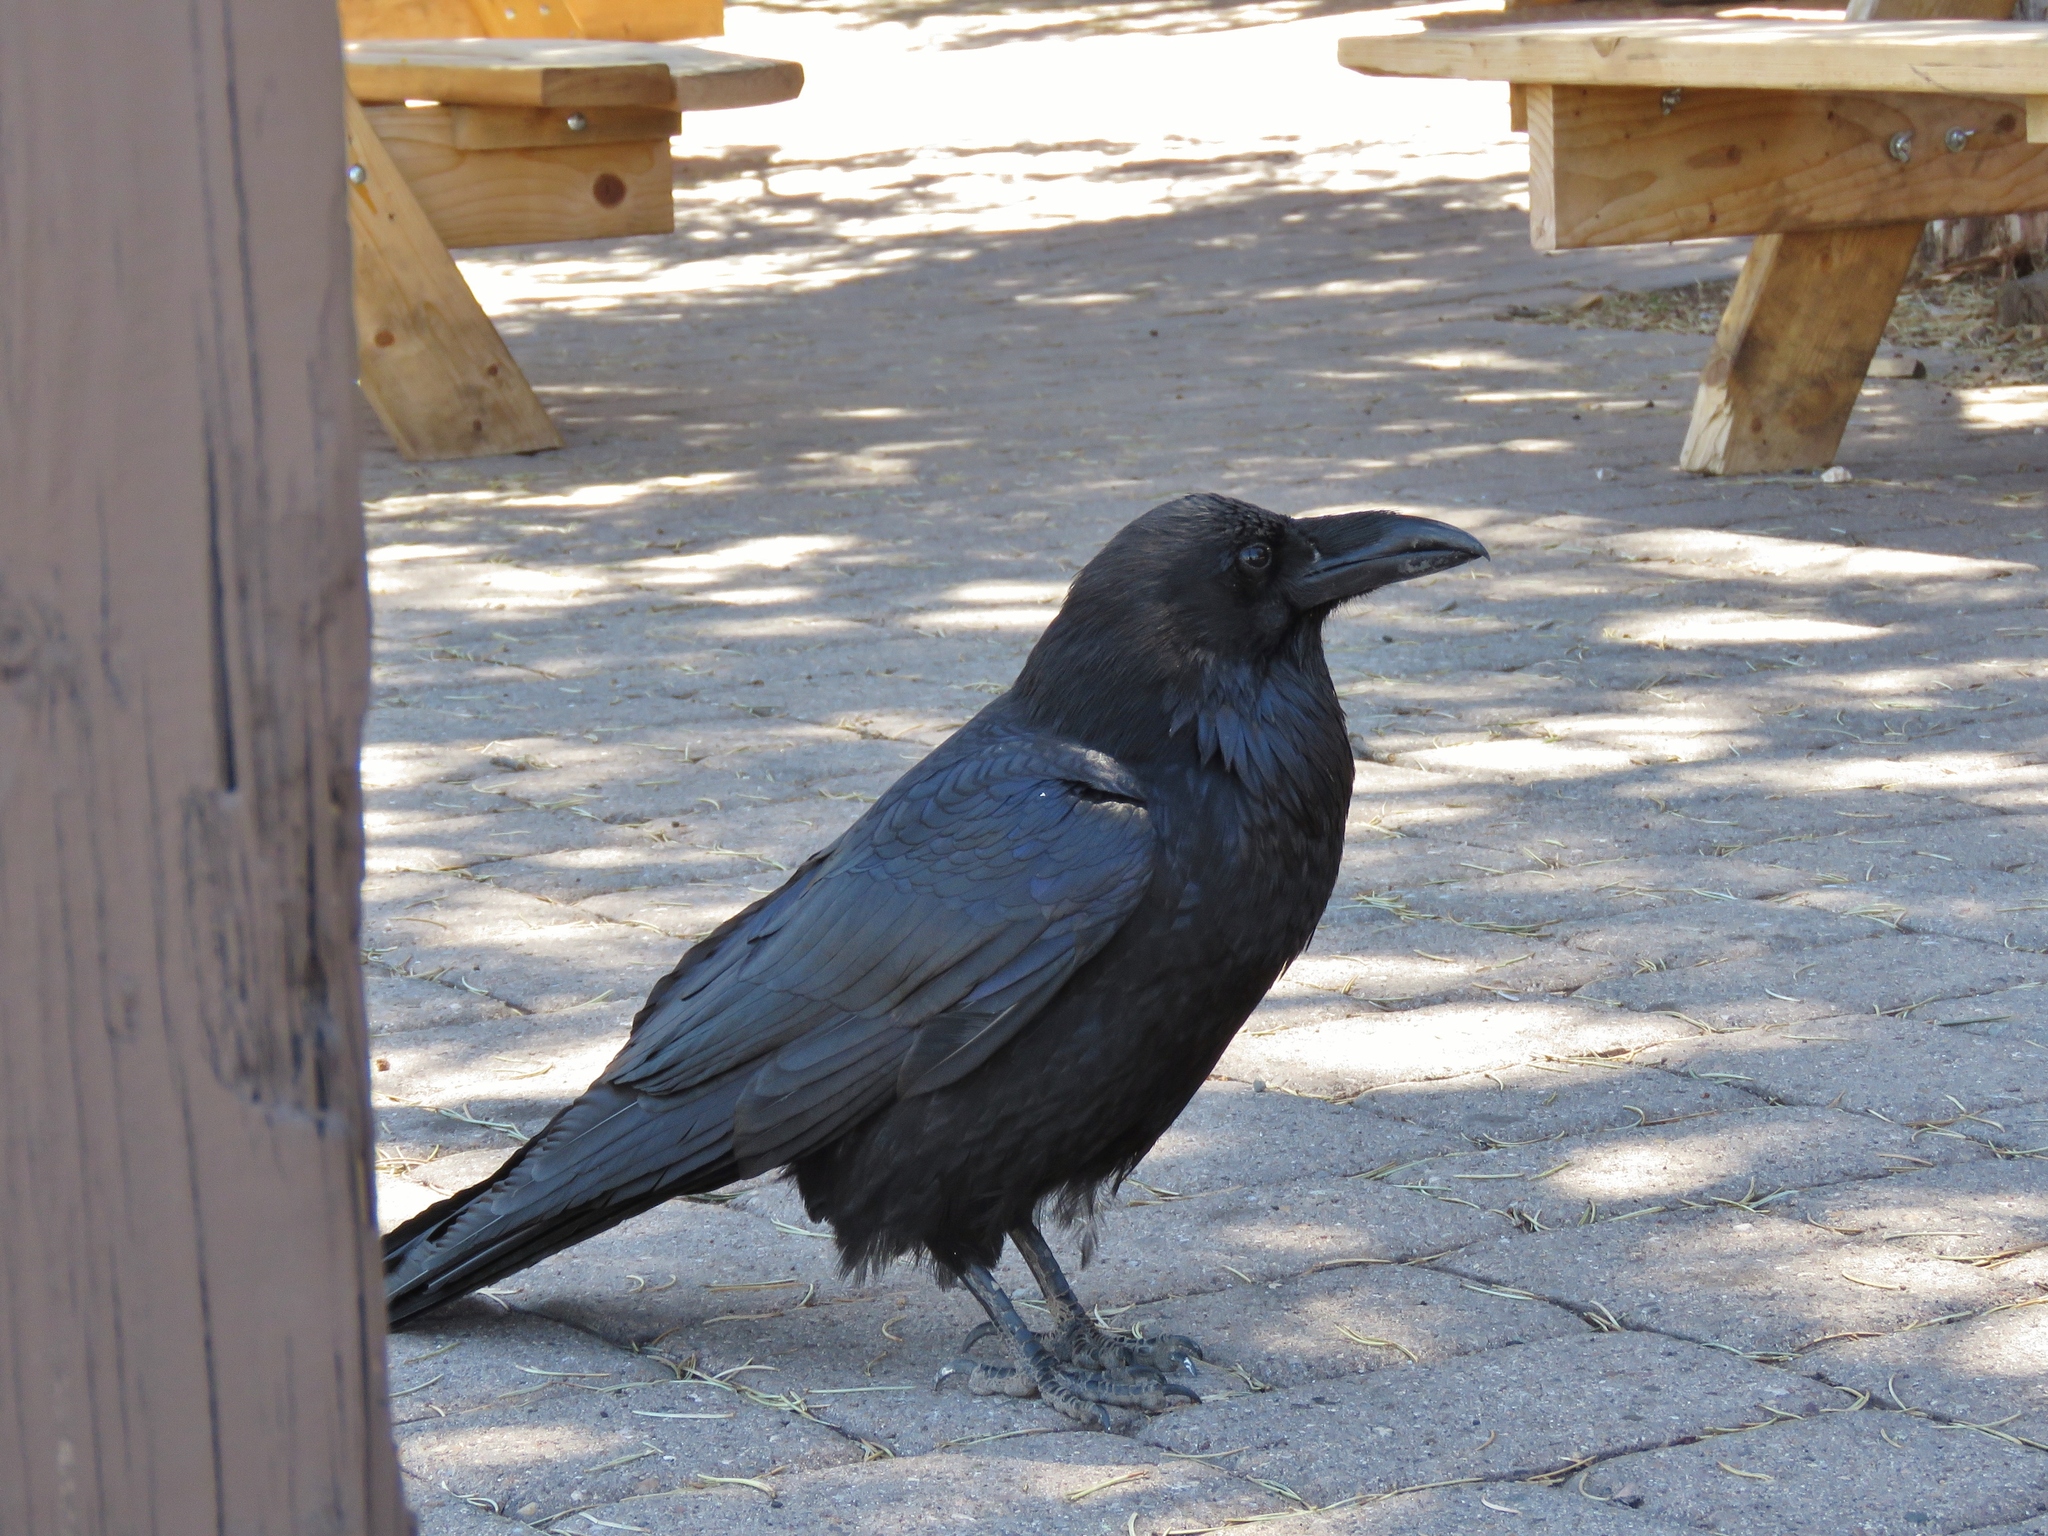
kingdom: Animalia
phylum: Chordata
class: Aves
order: Passeriformes
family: Corvidae
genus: Corvus
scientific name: Corvus corax
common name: Common raven
